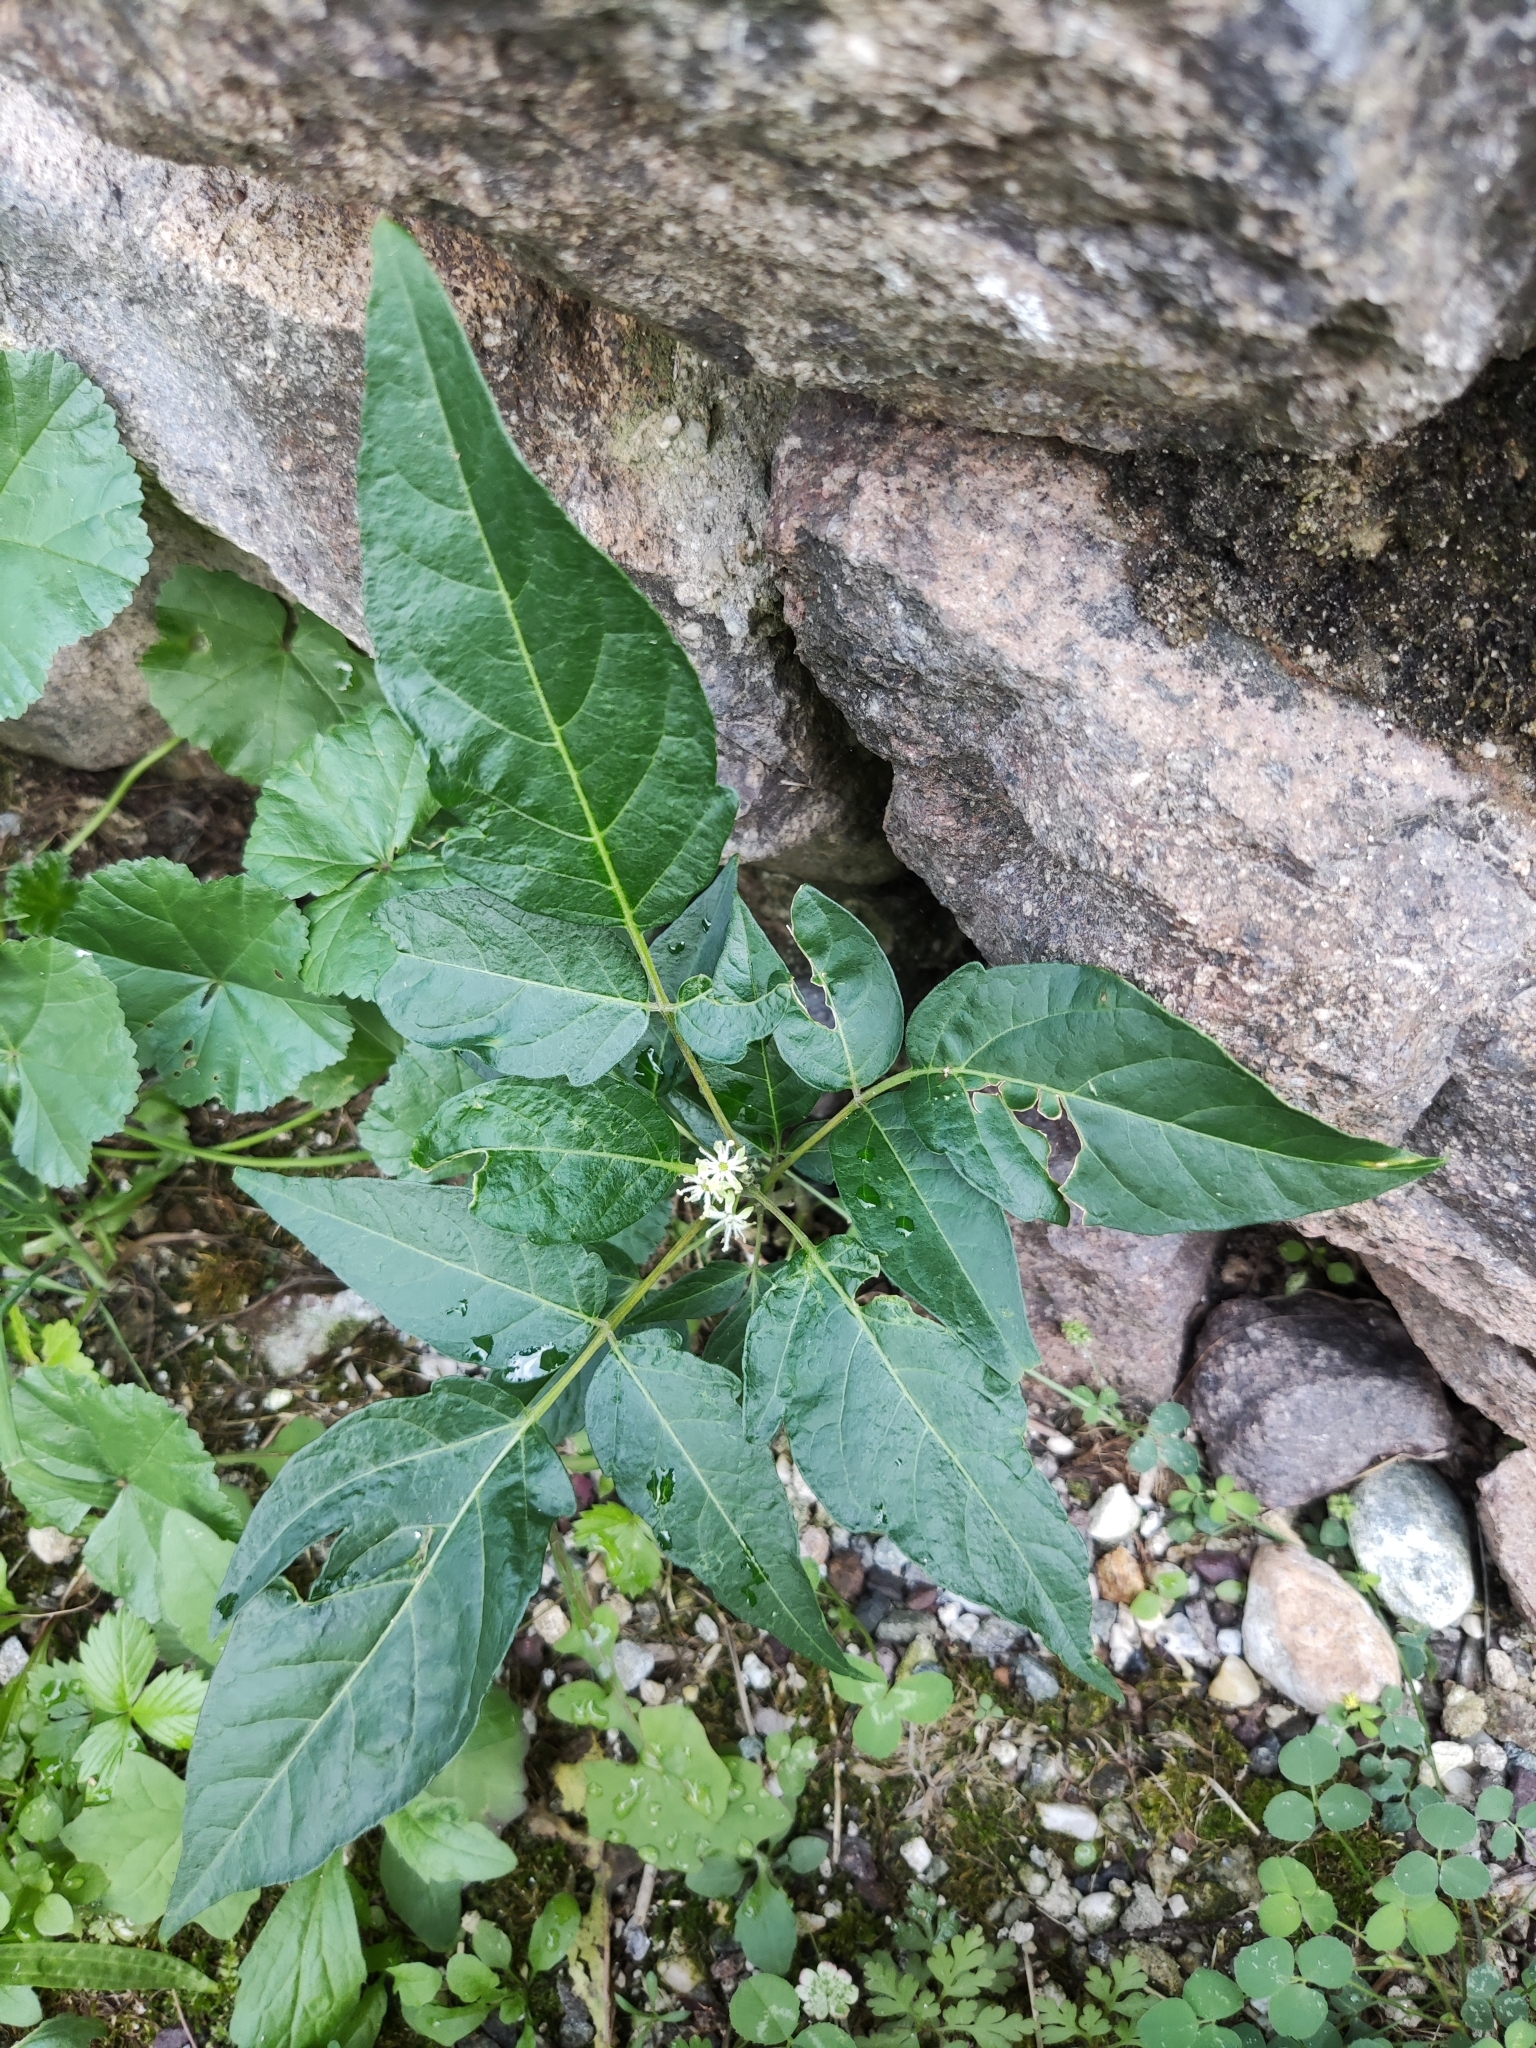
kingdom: Plantae
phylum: Tracheophyta
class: Magnoliopsida
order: Sapindales
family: Simaroubaceae
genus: Ailanthus
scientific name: Ailanthus altissima
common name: Tree-of-heaven
